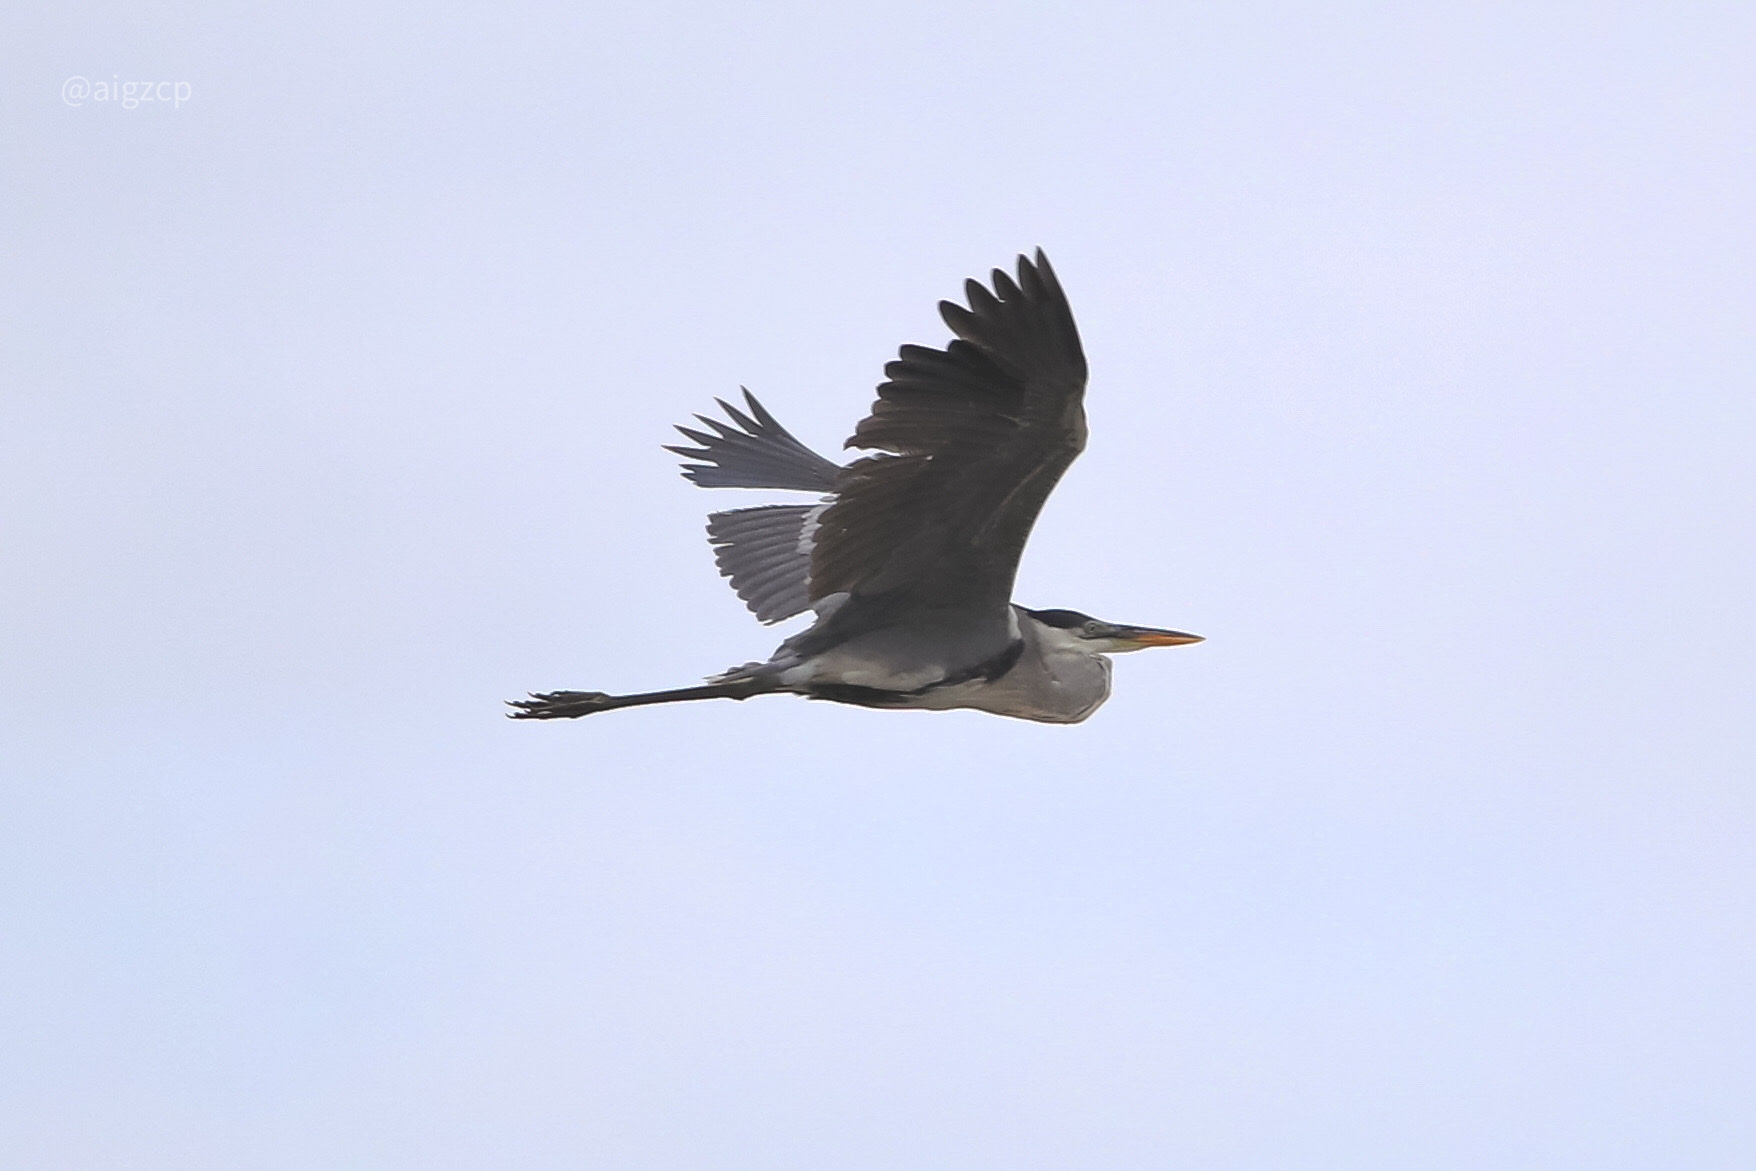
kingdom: Animalia
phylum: Chordata
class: Aves
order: Pelecaniformes
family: Ardeidae
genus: Ardea
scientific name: Ardea cocoi
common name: Cocoi heron
